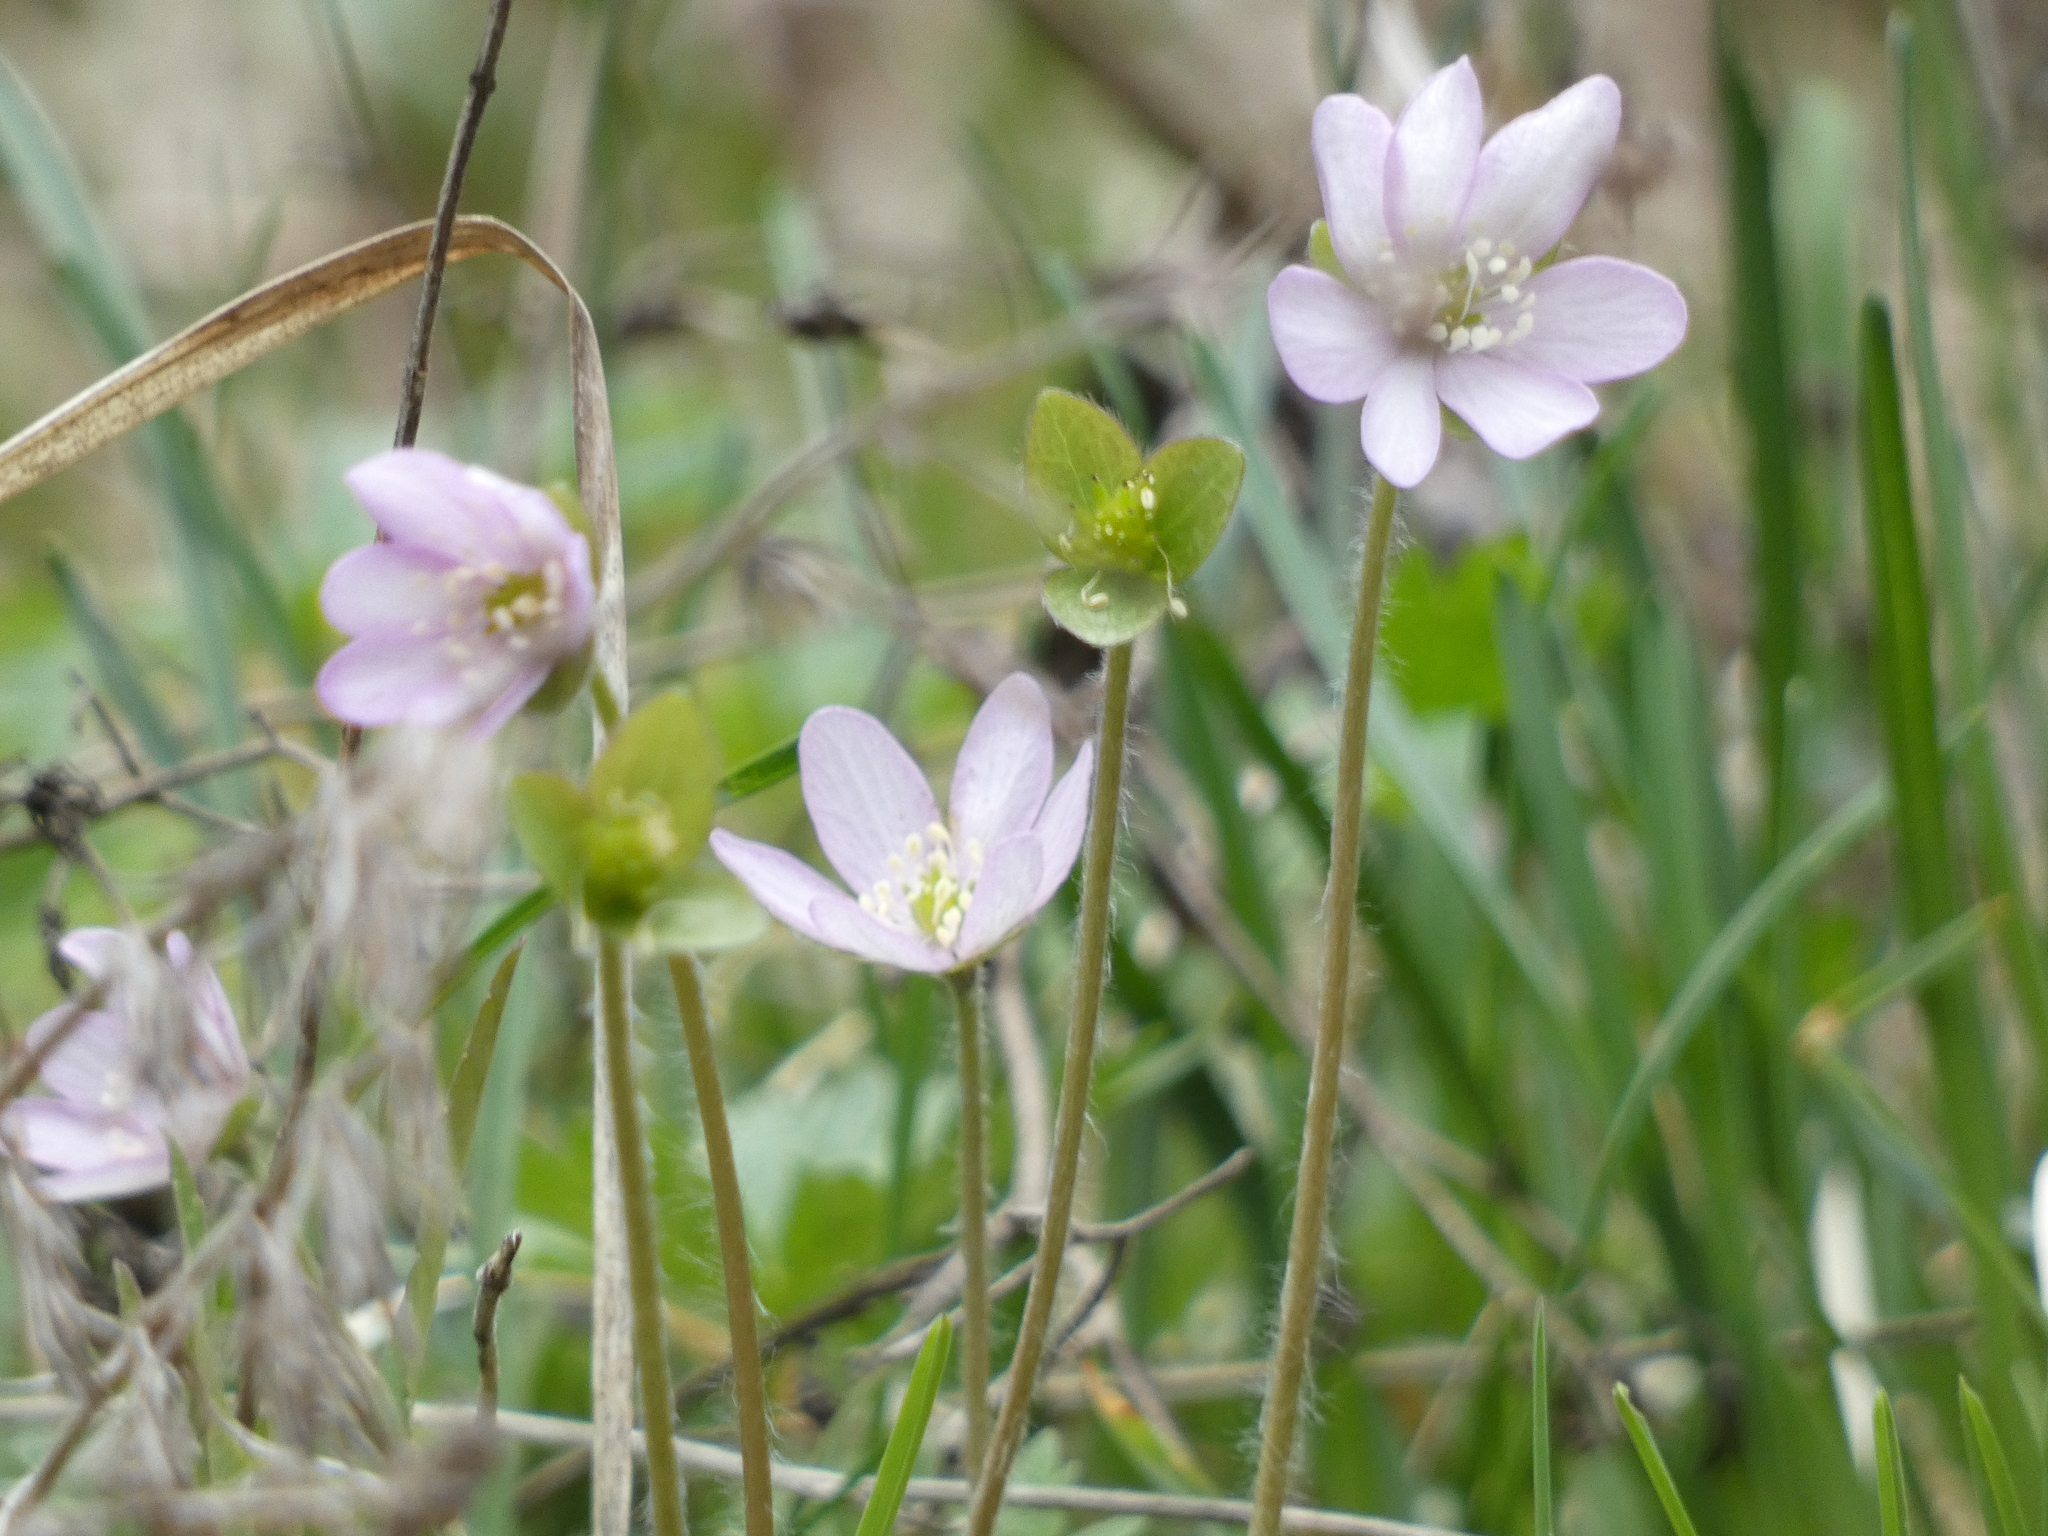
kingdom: Plantae
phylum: Tracheophyta
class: Magnoliopsida
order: Ranunculales
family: Ranunculaceae
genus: Hepatica
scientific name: Hepatica nobilis
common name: Liverleaf
